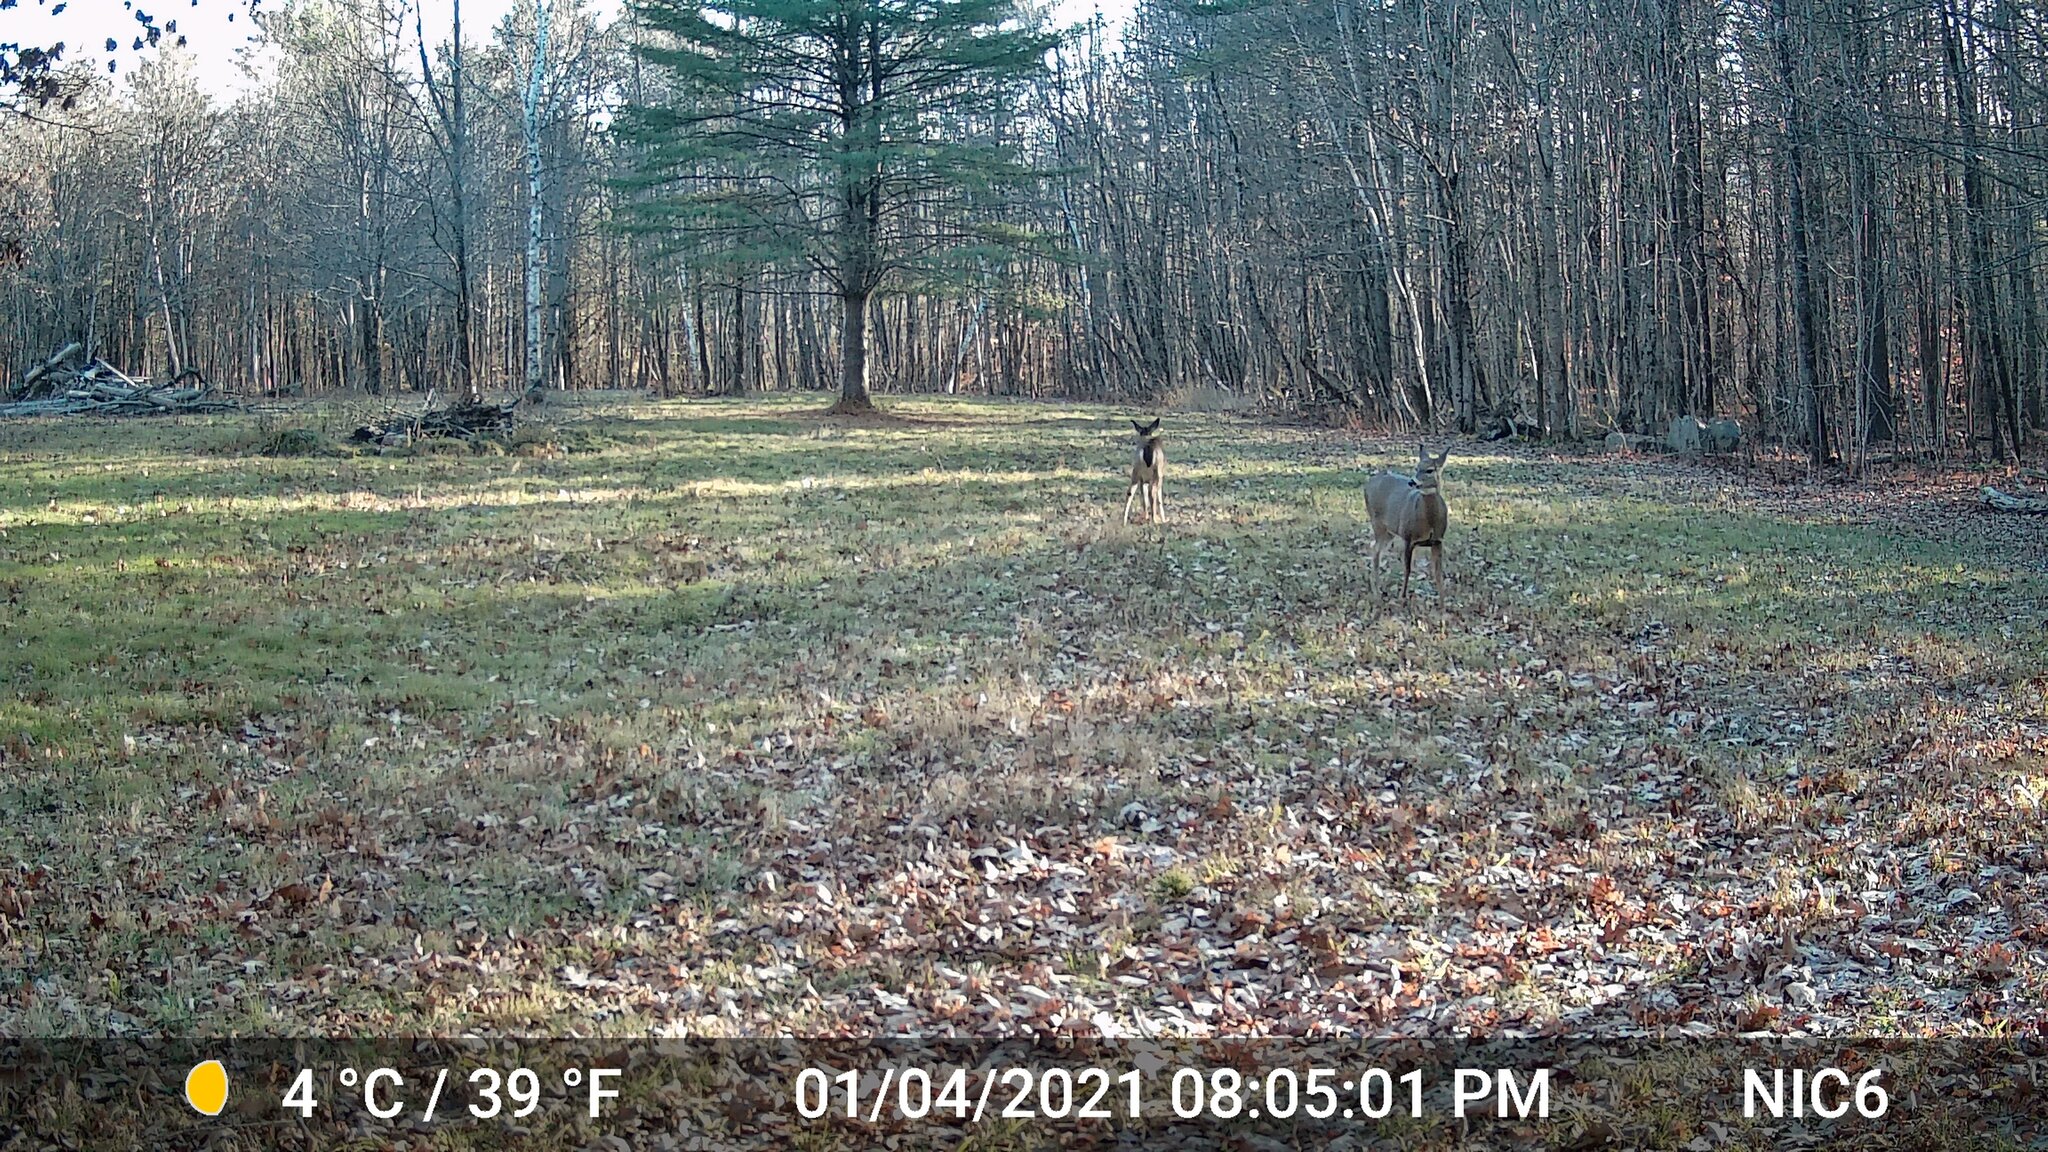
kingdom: Animalia
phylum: Chordata
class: Mammalia
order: Artiodactyla
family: Cervidae
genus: Odocoileus
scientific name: Odocoileus virginianus
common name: White-tailed deer
